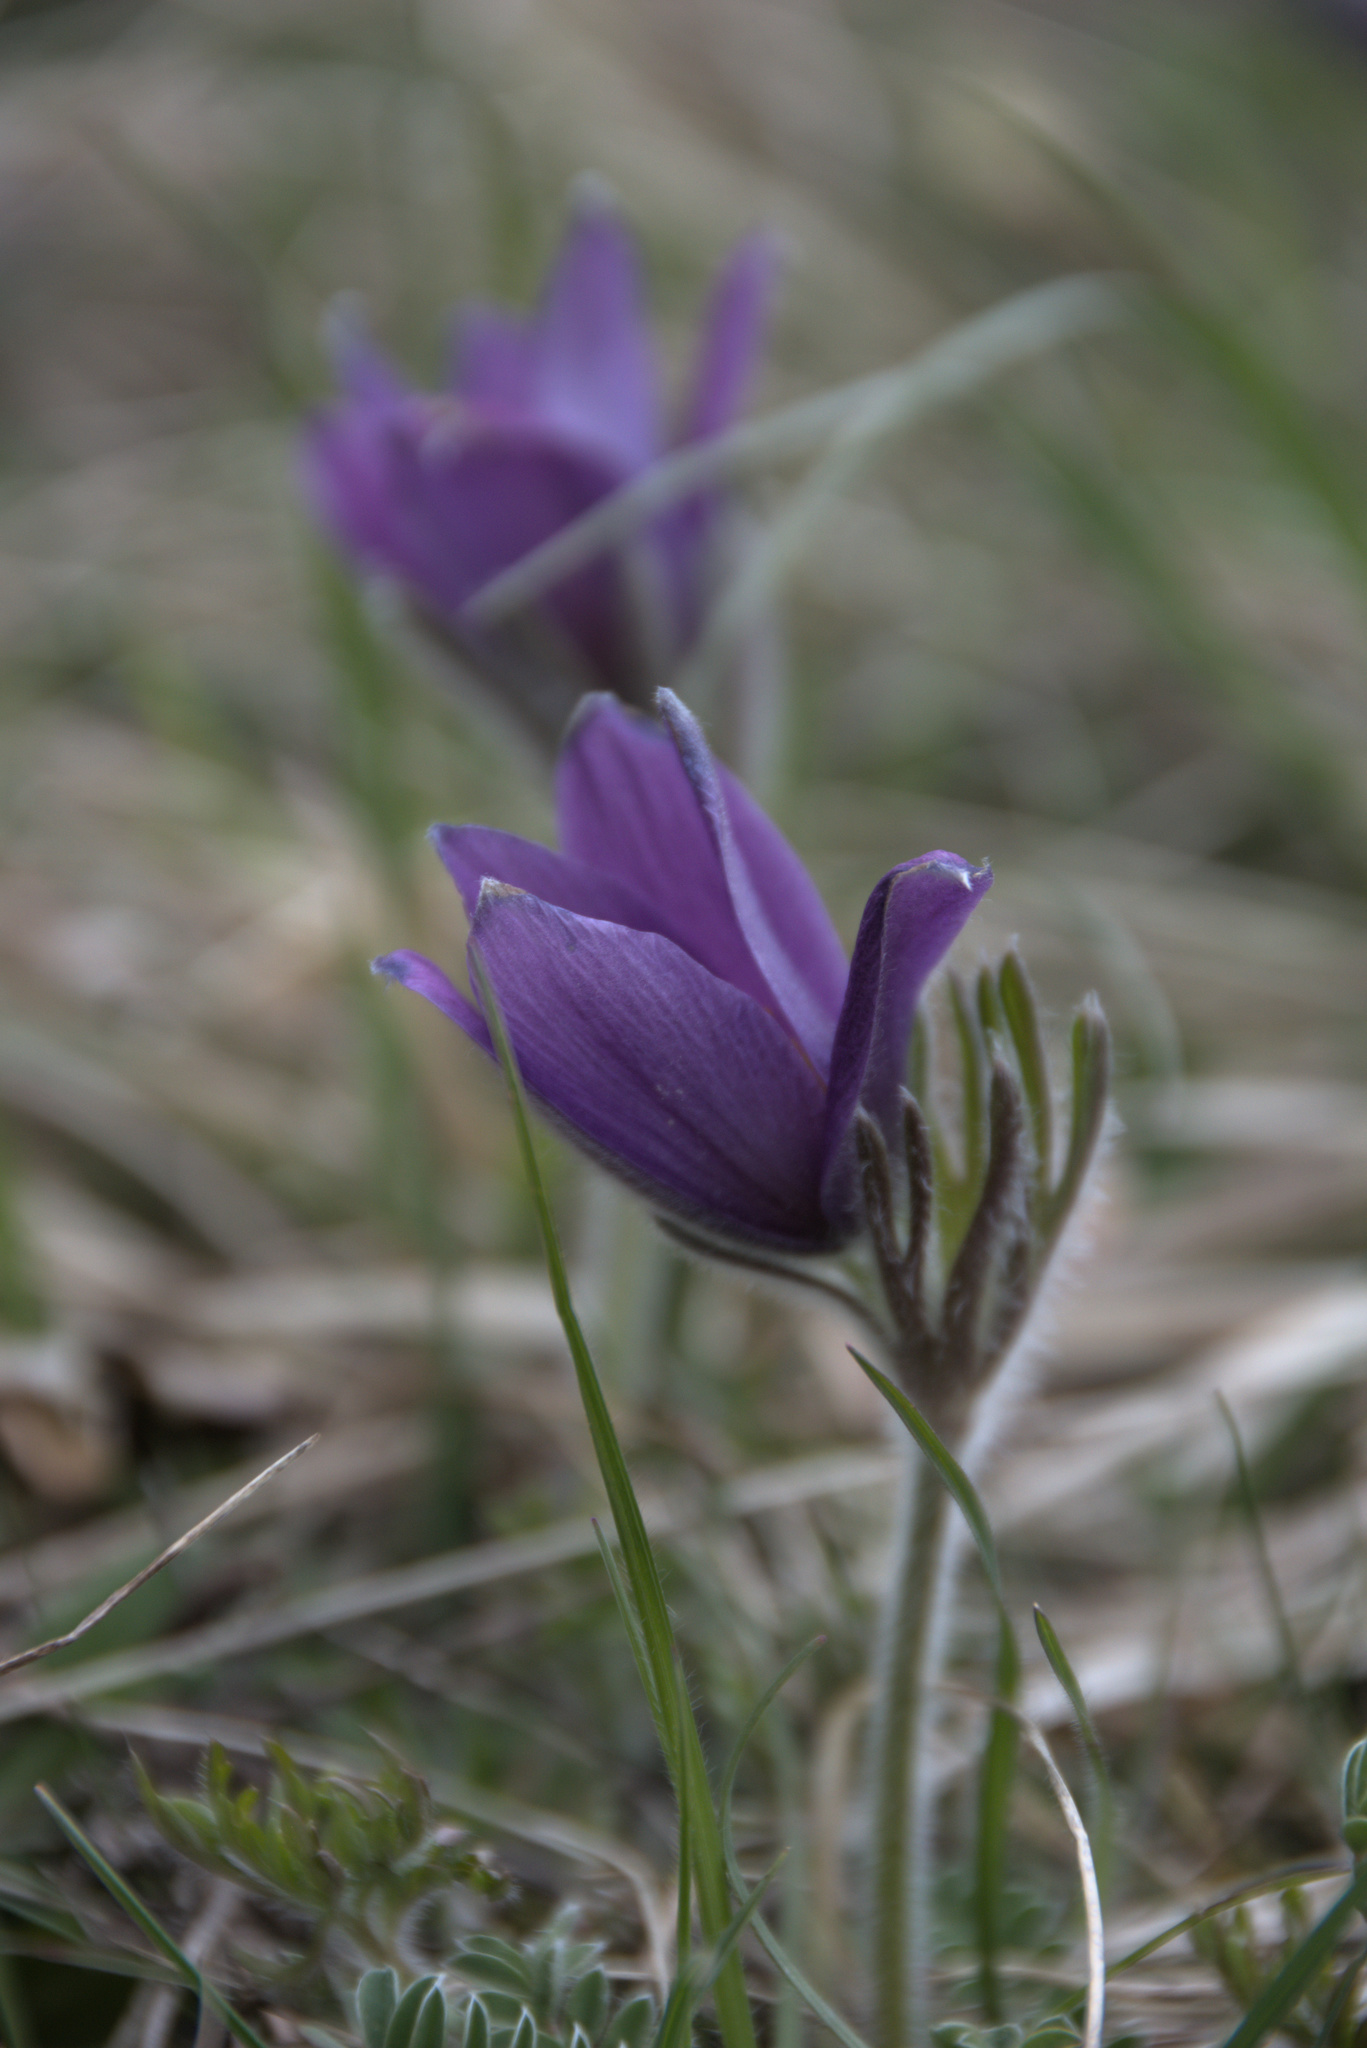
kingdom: Plantae
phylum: Tracheophyta
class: Magnoliopsida
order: Ranunculales
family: Ranunculaceae
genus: Pulsatilla
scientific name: Pulsatilla vulgaris
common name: Pasqueflower
